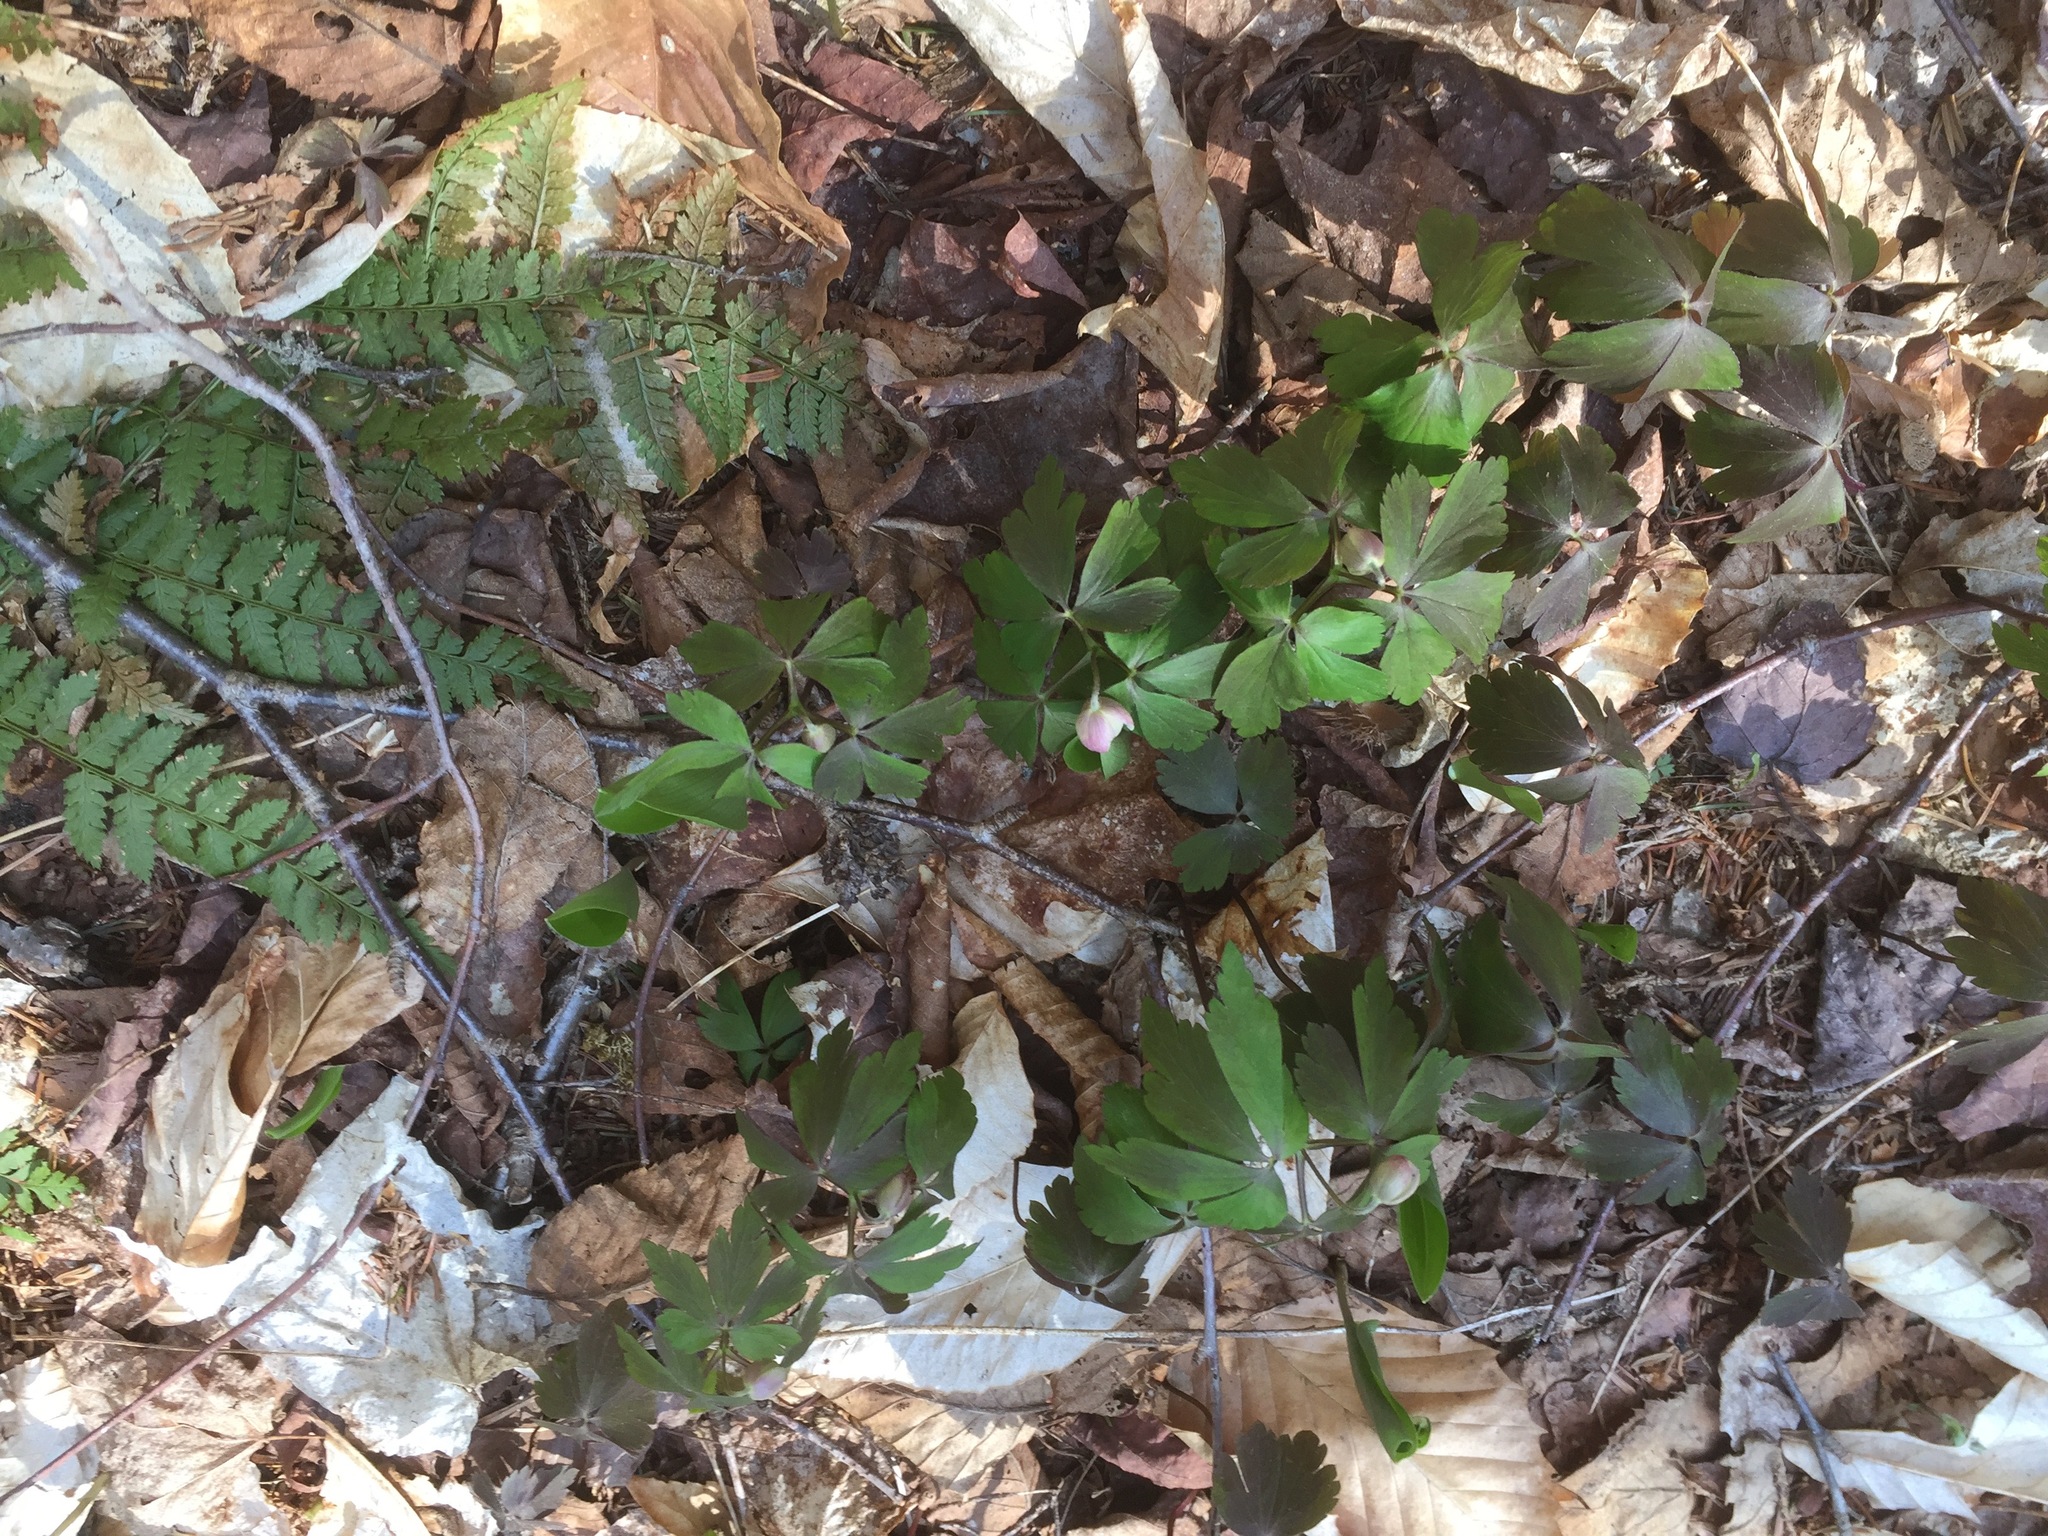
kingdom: Plantae
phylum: Tracheophyta
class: Magnoliopsida
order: Ranunculales
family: Ranunculaceae
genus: Anemone
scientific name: Anemone quinquefolia
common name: Wood anemone
